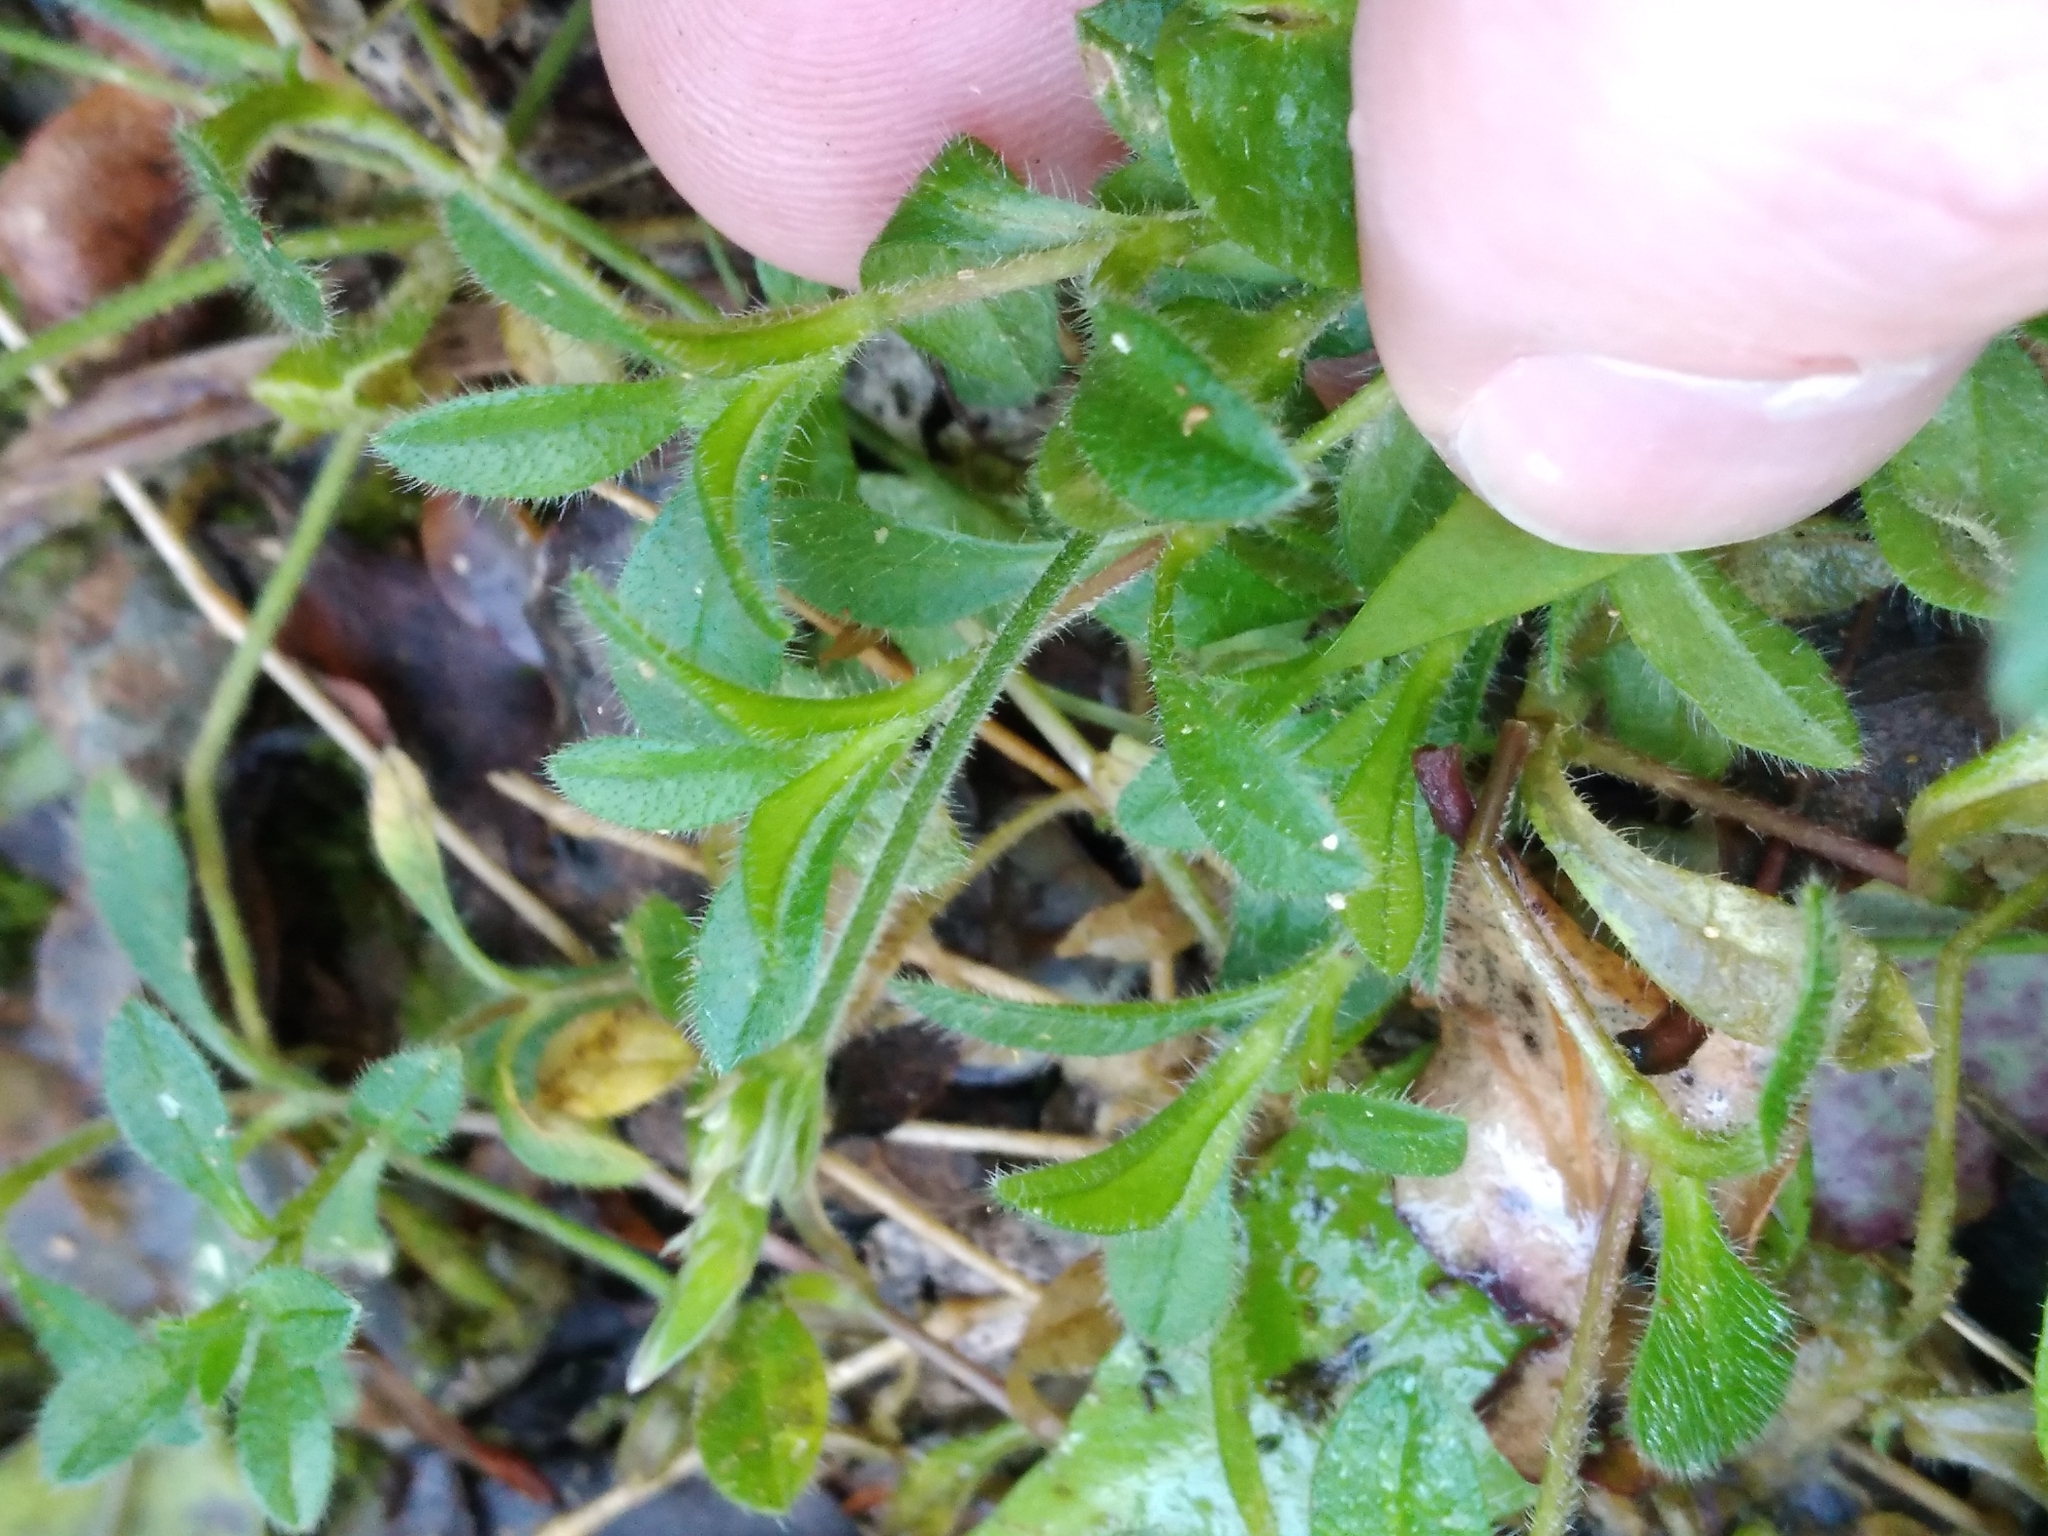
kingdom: Plantae
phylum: Tracheophyta
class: Magnoliopsida
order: Caryophyllales
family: Caryophyllaceae
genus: Cerastium
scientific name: Cerastium fontanum
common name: Common mouse-ear
